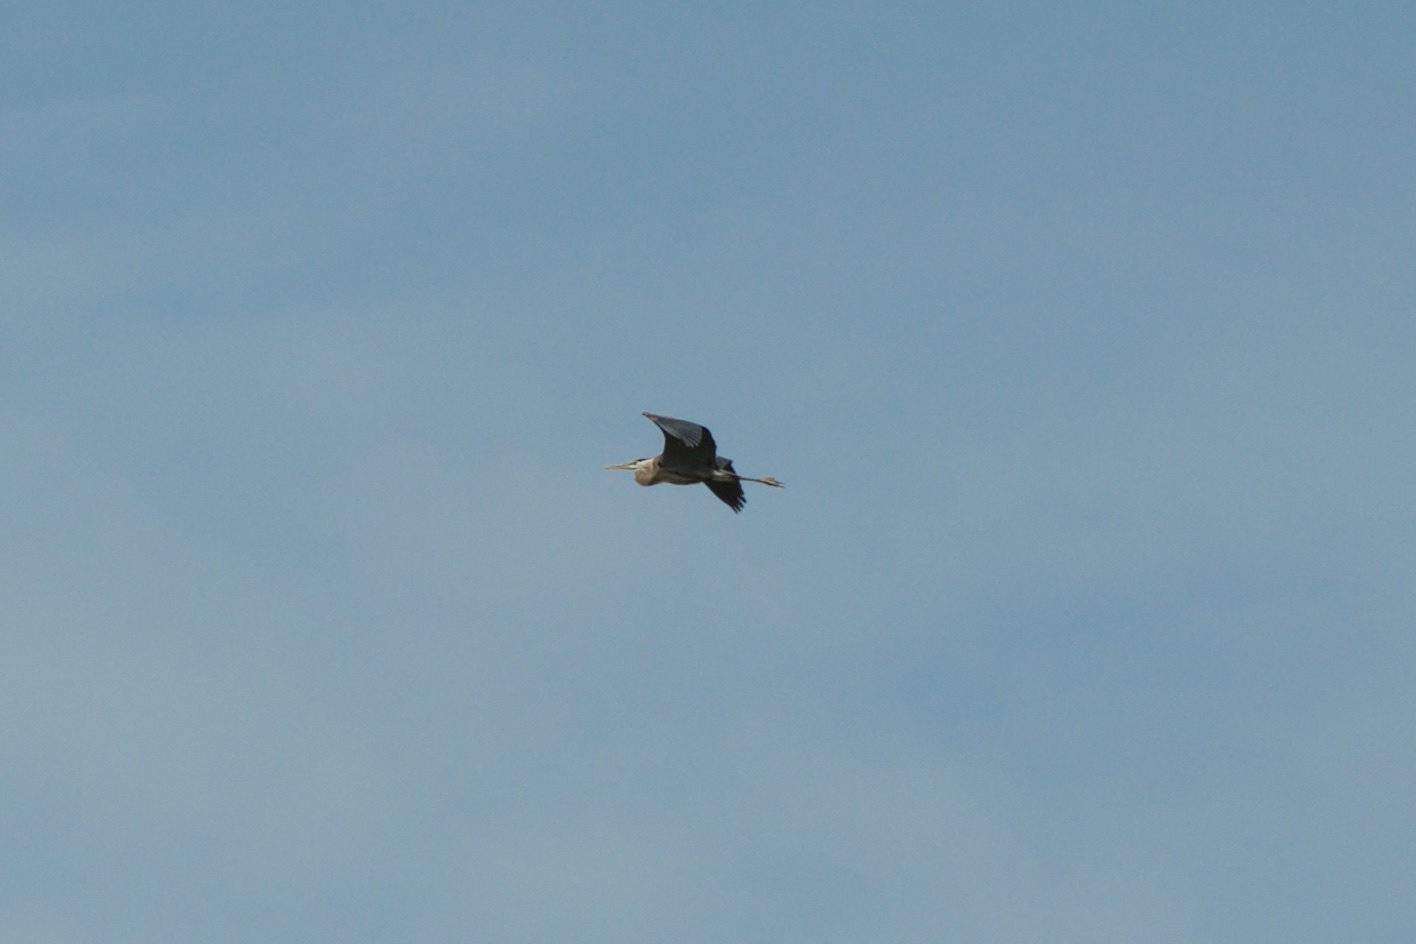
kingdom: Animalia
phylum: Chordata
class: Aves
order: Pelecaniformes
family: Ardeidae
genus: Ardea
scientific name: Ardea herodias
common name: Great blue heron
